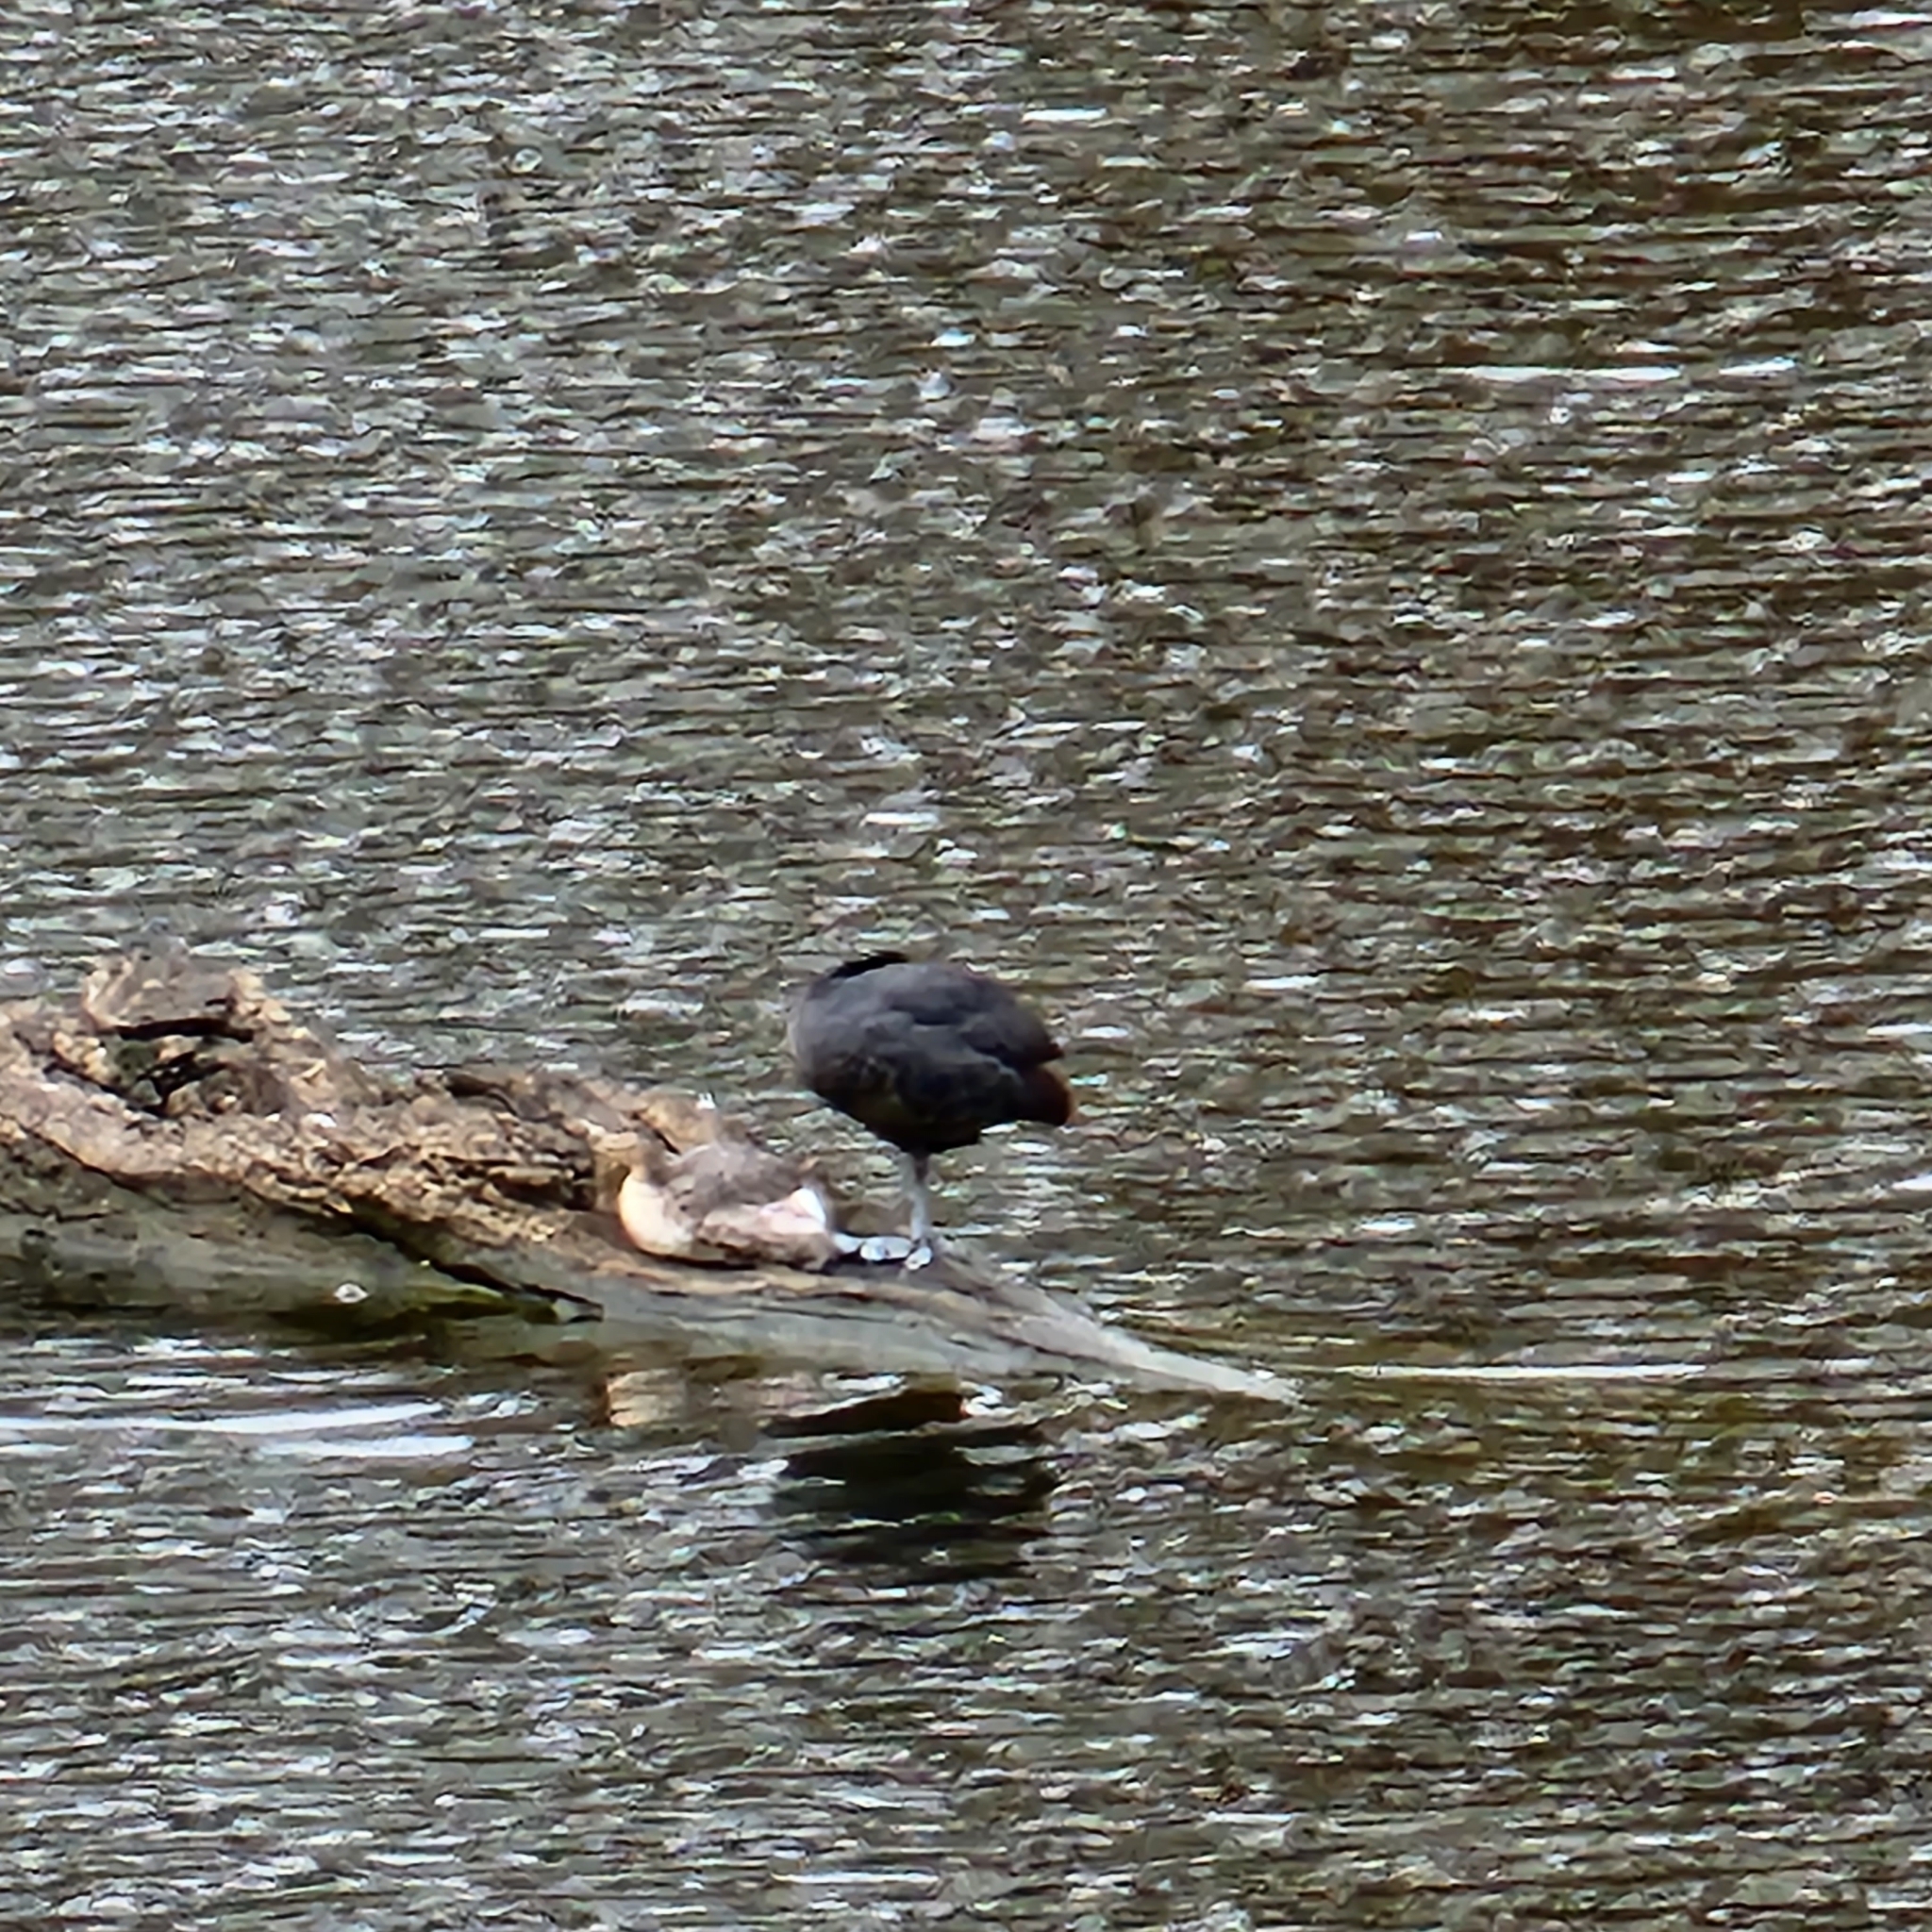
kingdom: Animalia
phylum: Chordata
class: Aves
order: Gruiformes
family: Rallidae
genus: Gallinula
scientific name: Gallinula tenebrosa
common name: Dusky moorhen
